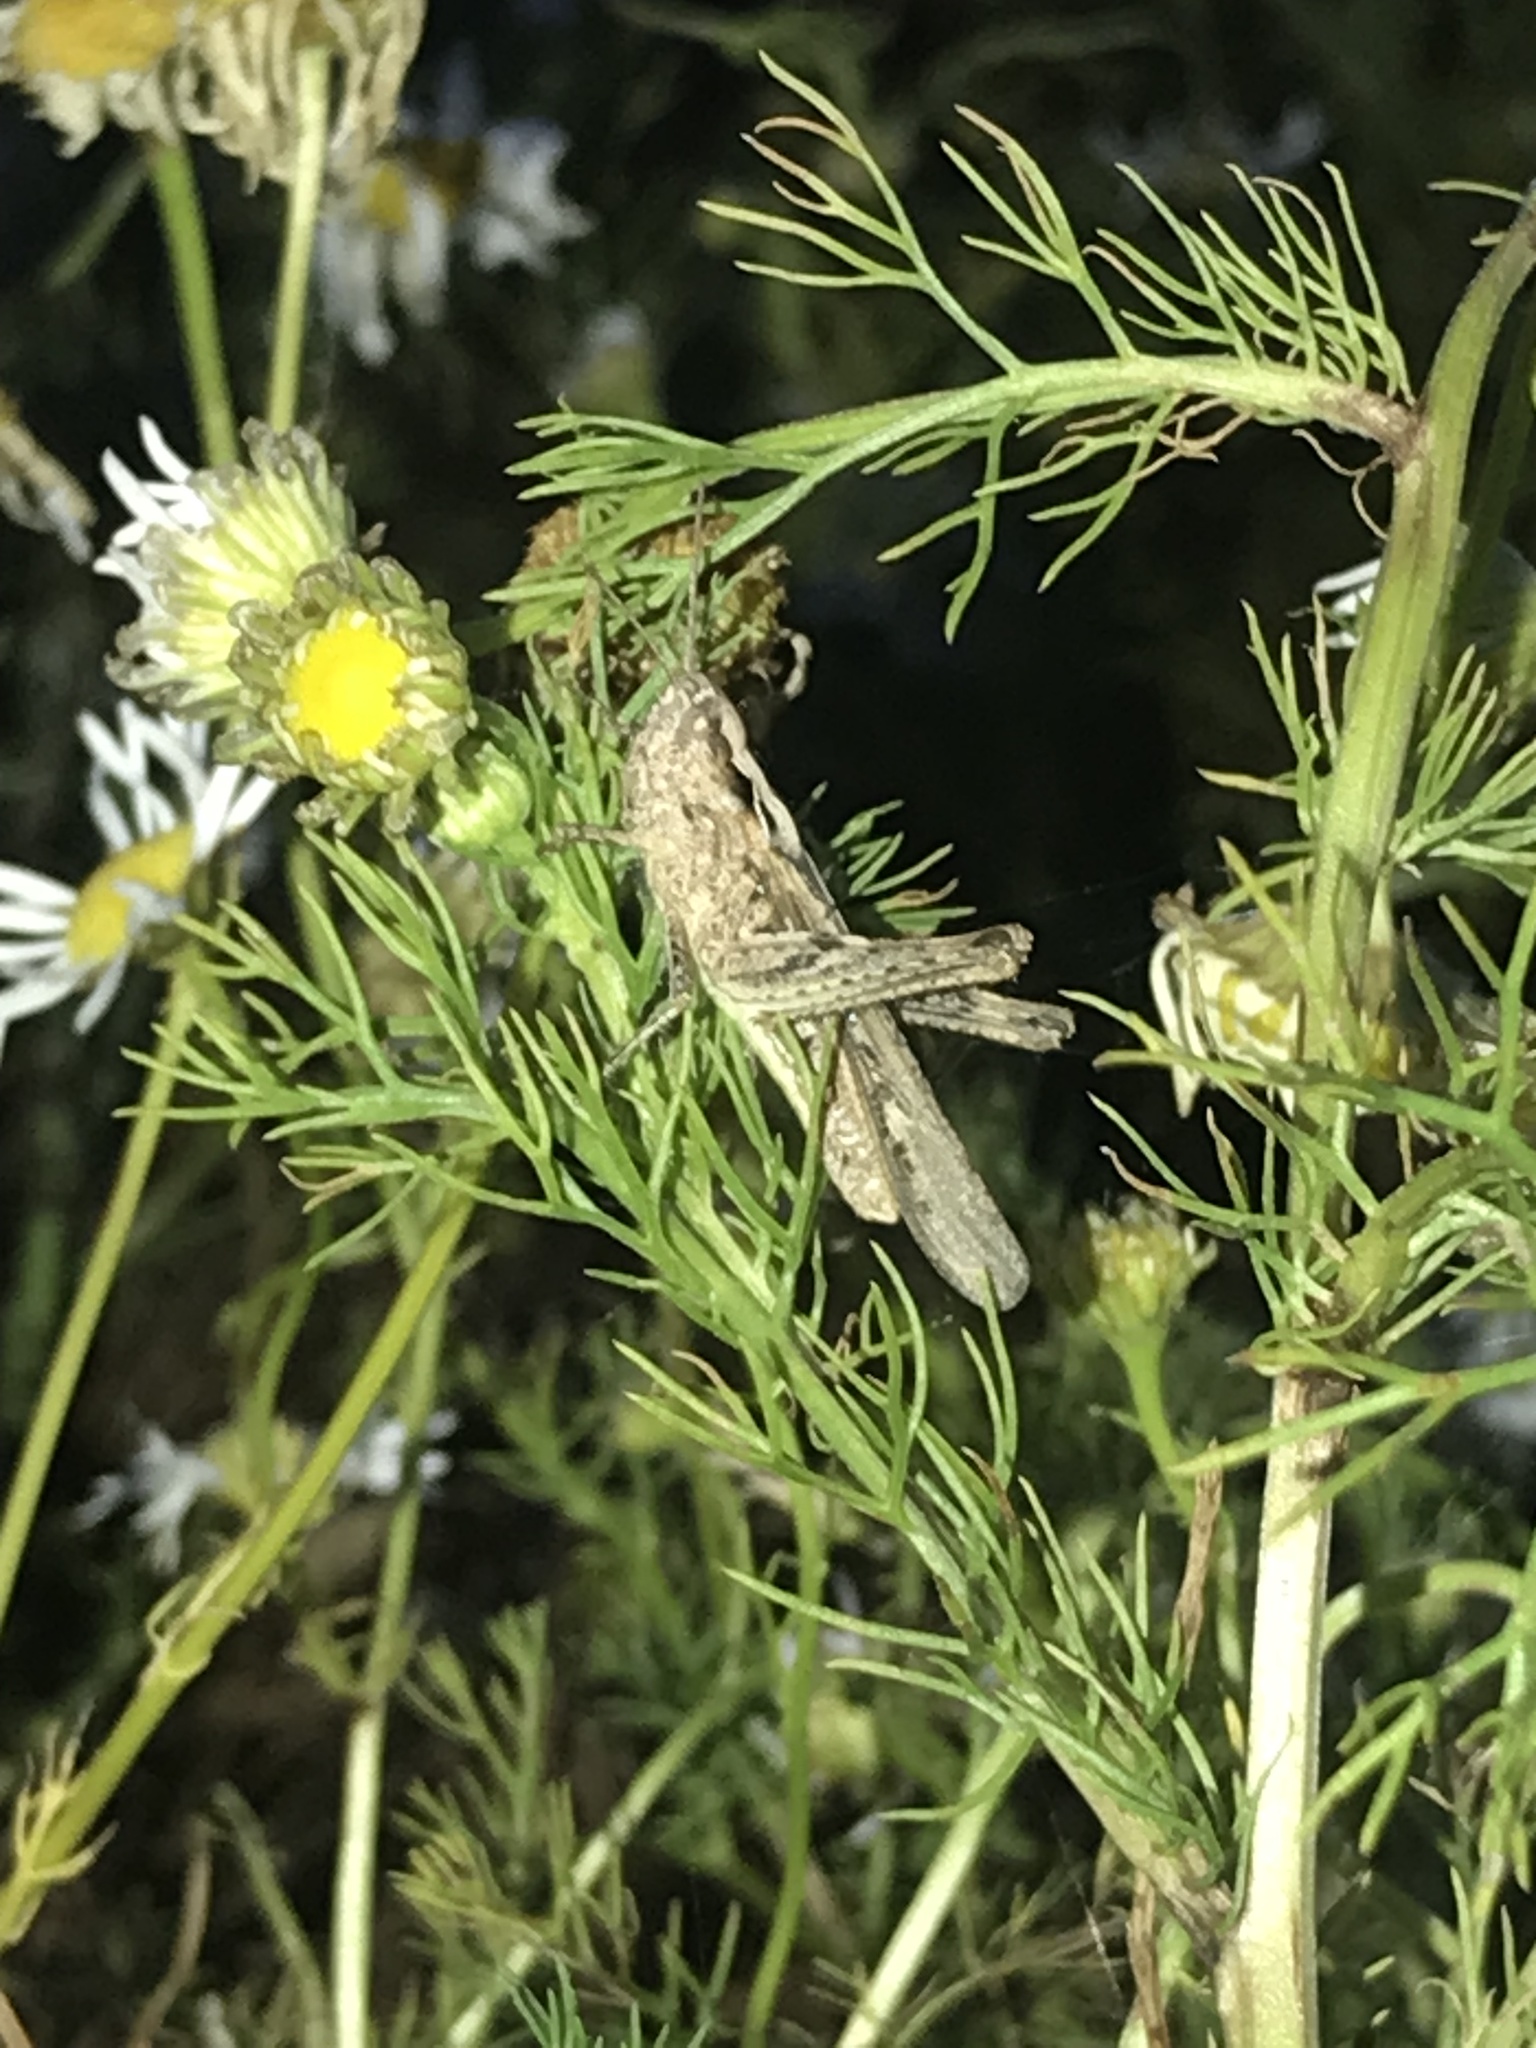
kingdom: Animalia
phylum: Arthropoda
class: Insecta
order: Orthoptera
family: Acrididae
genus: Chorthippus
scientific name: Chorthippus brunneus
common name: Field grasshopper
